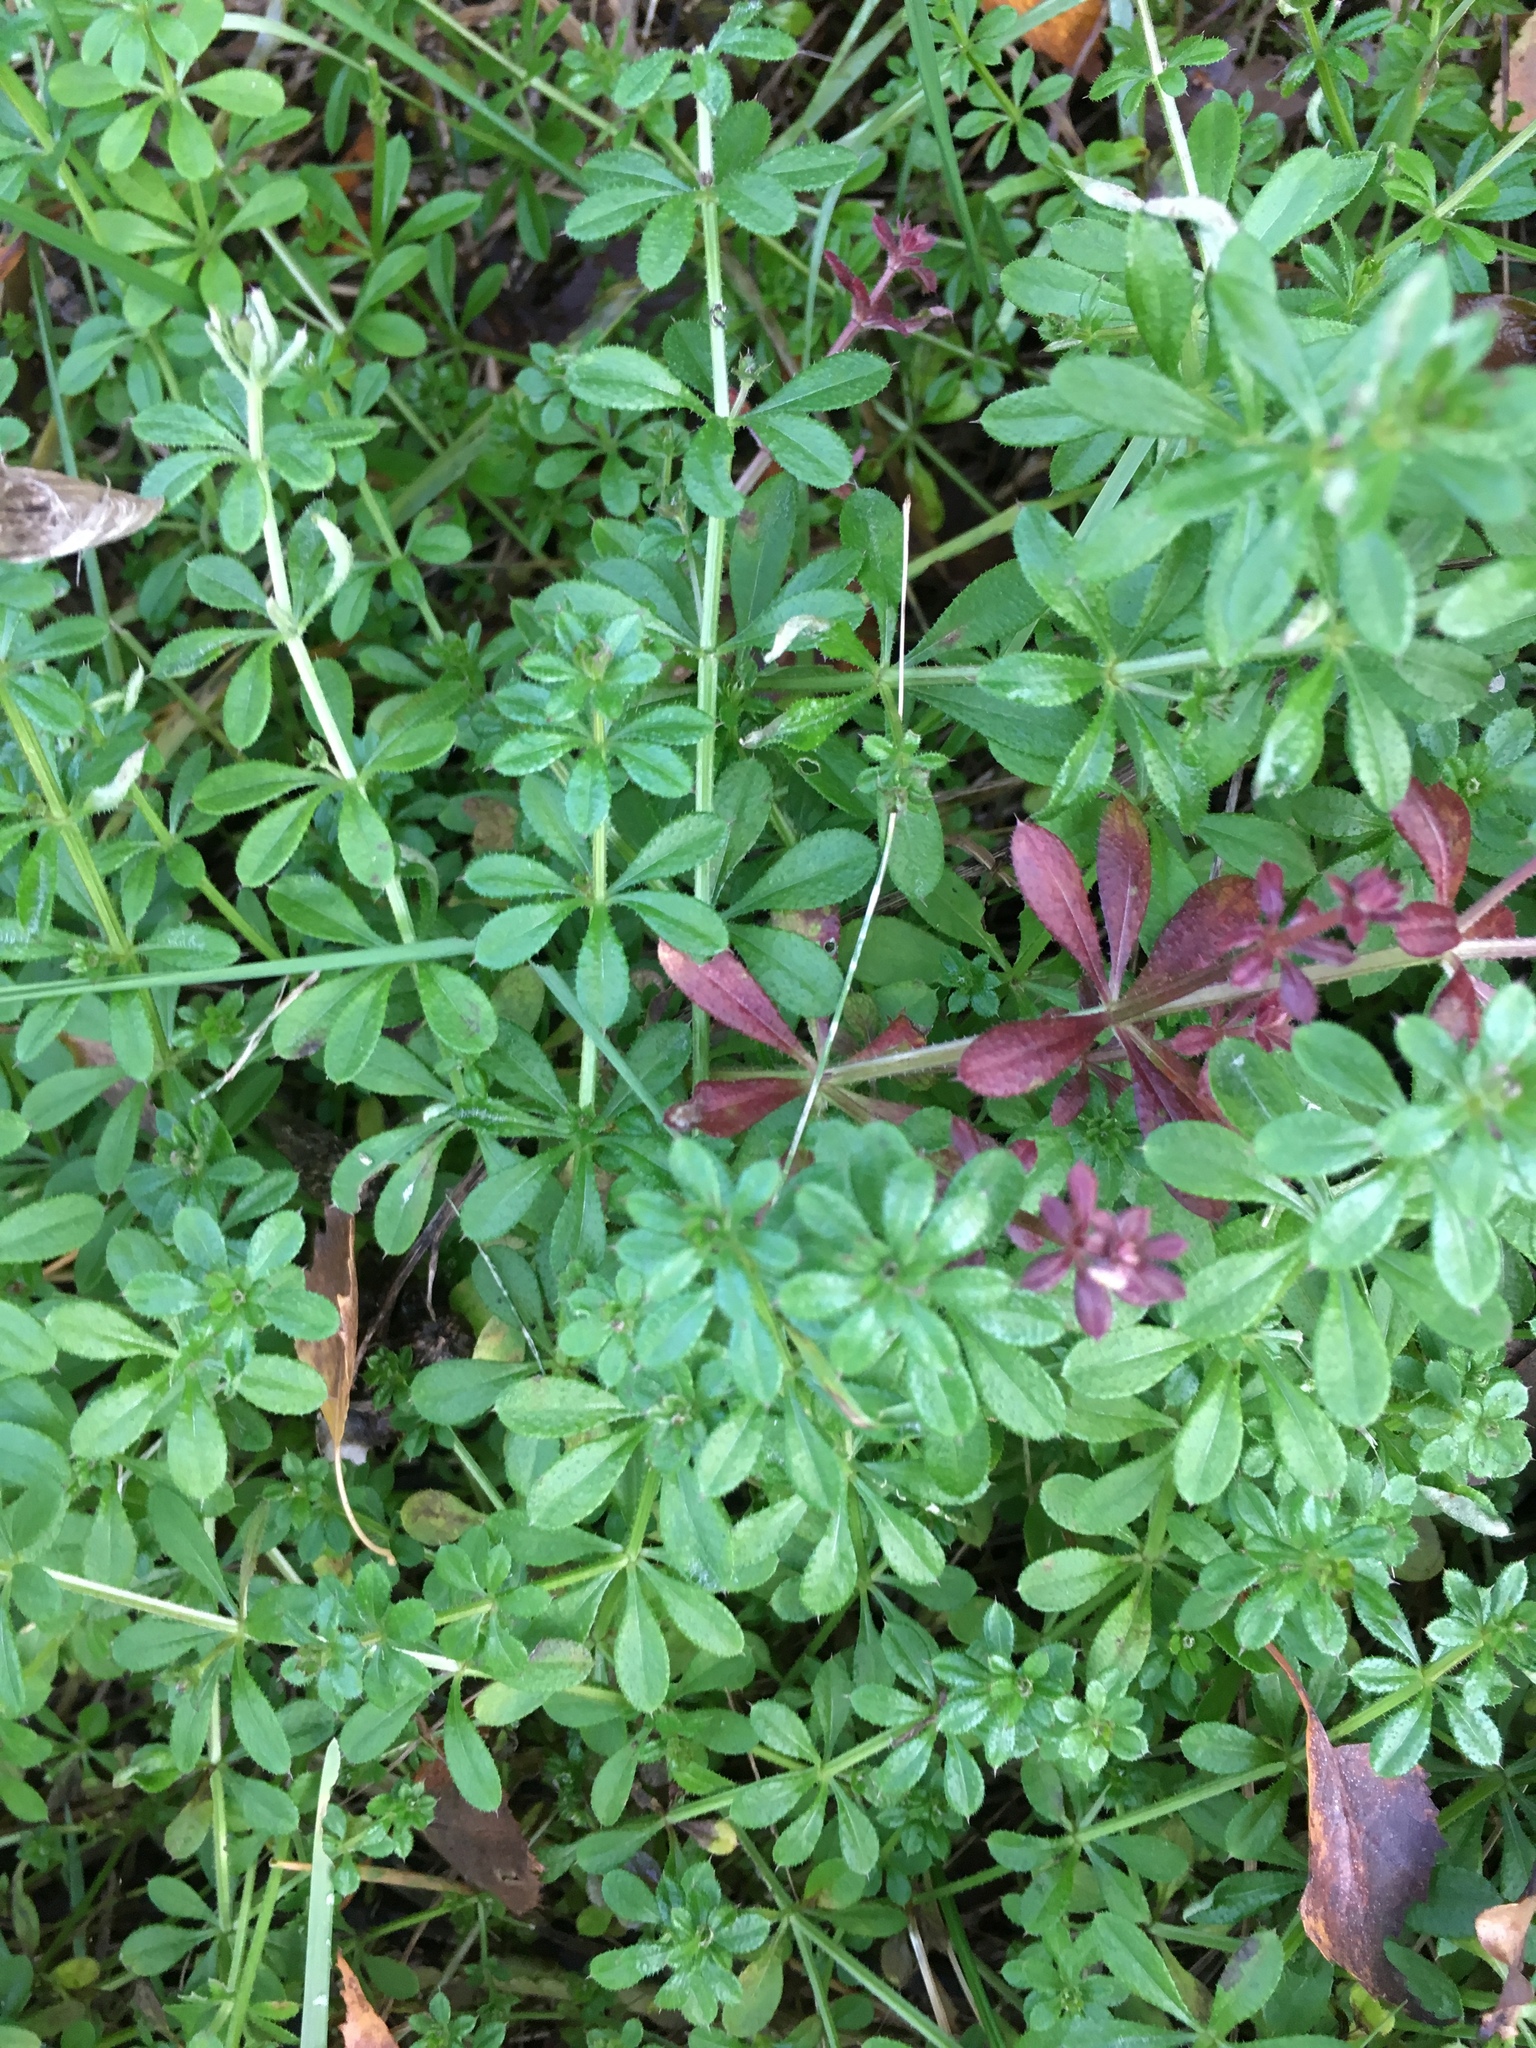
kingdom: Plantae
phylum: Tracheophyta
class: Magnoliopsida
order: Gentianales
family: Rubiaceae
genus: Galium
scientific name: Galium aparine
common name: Cleavers
